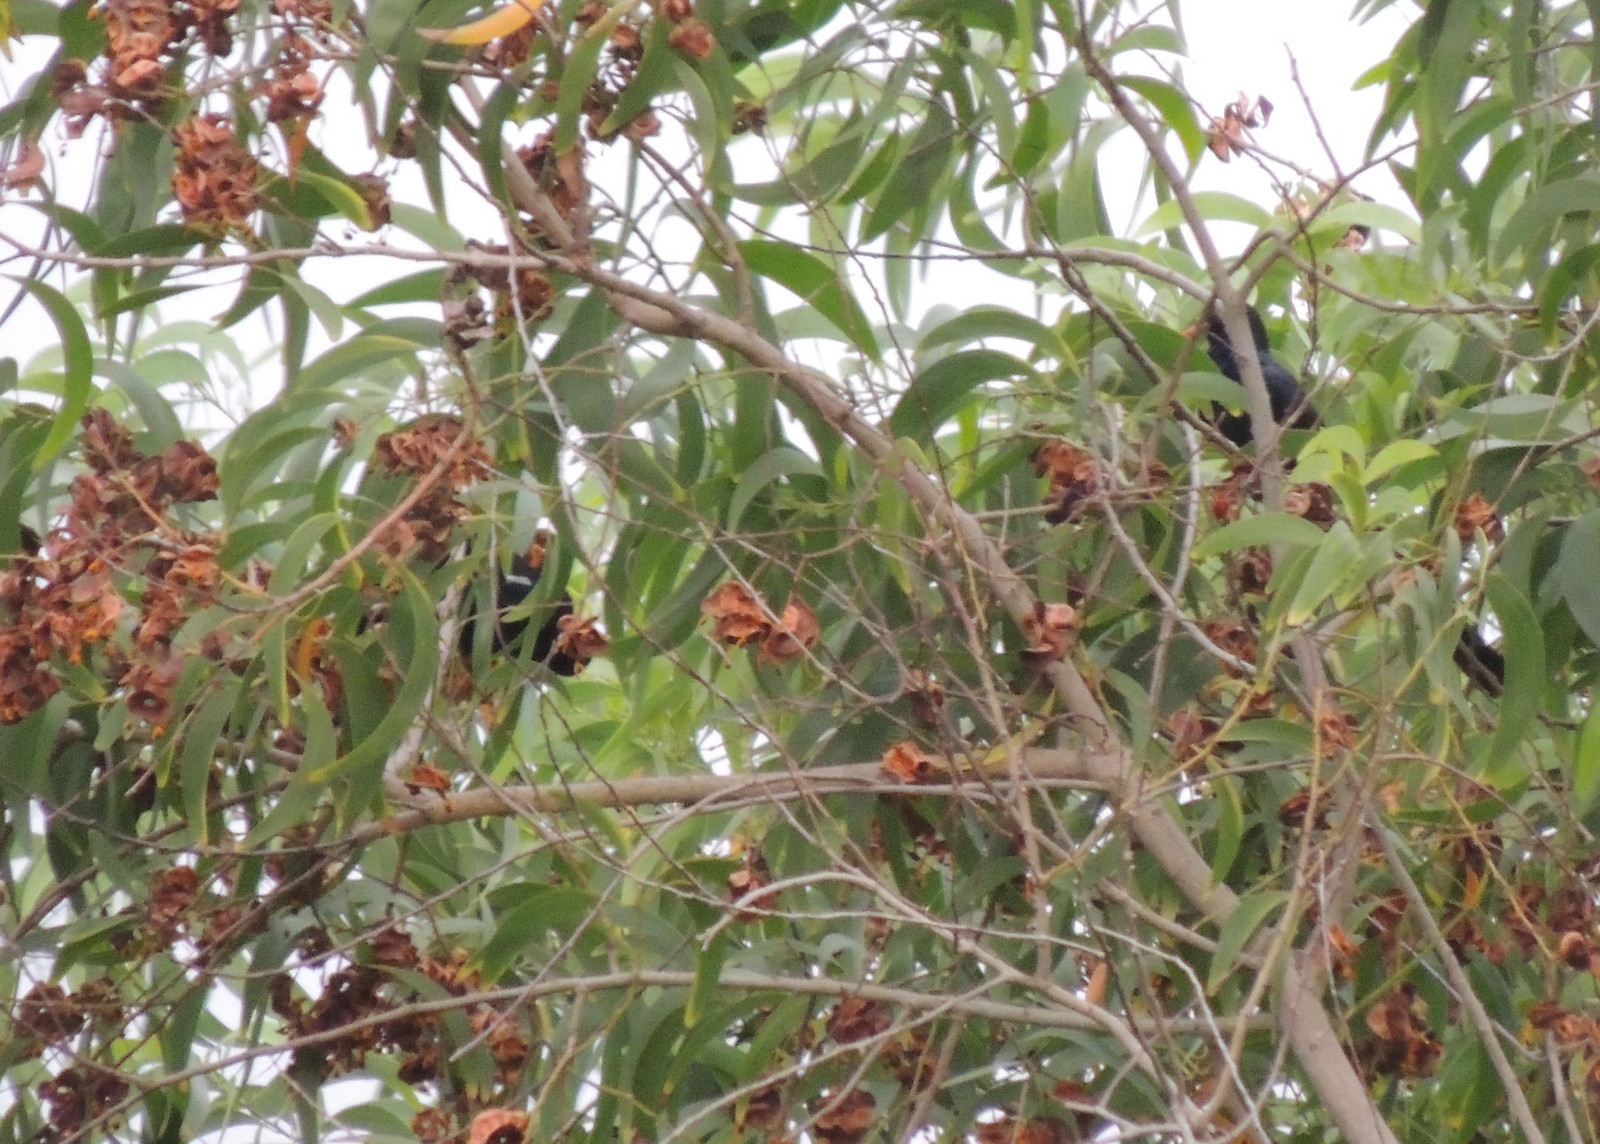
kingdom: Animalia
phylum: Chordata
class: Aves
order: Passeriformes
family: Corvidae
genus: Ptilostomus
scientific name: Ptilostomus afer
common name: Piapiac
